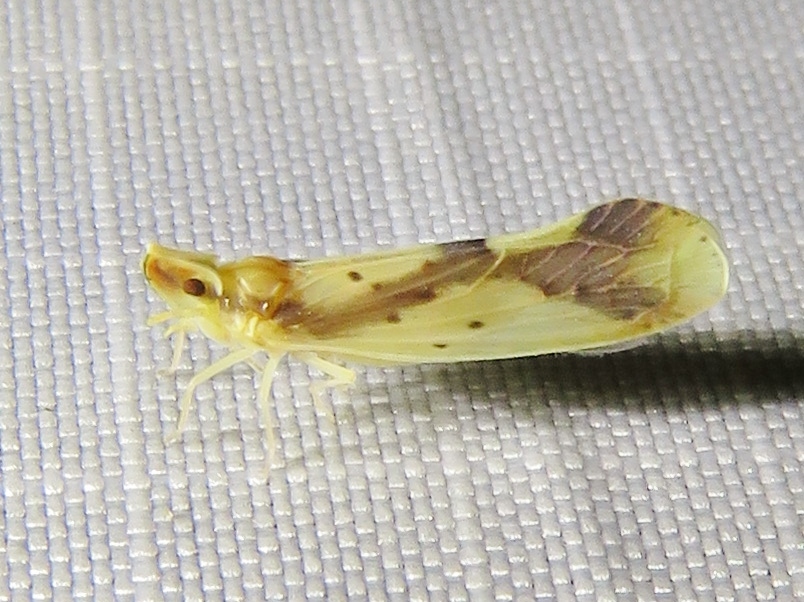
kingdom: Animalia
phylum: Arthropoda
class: Insecta
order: Hemiptera
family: Derbidae
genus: Otiocerus
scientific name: Otiocerus reaumurii
